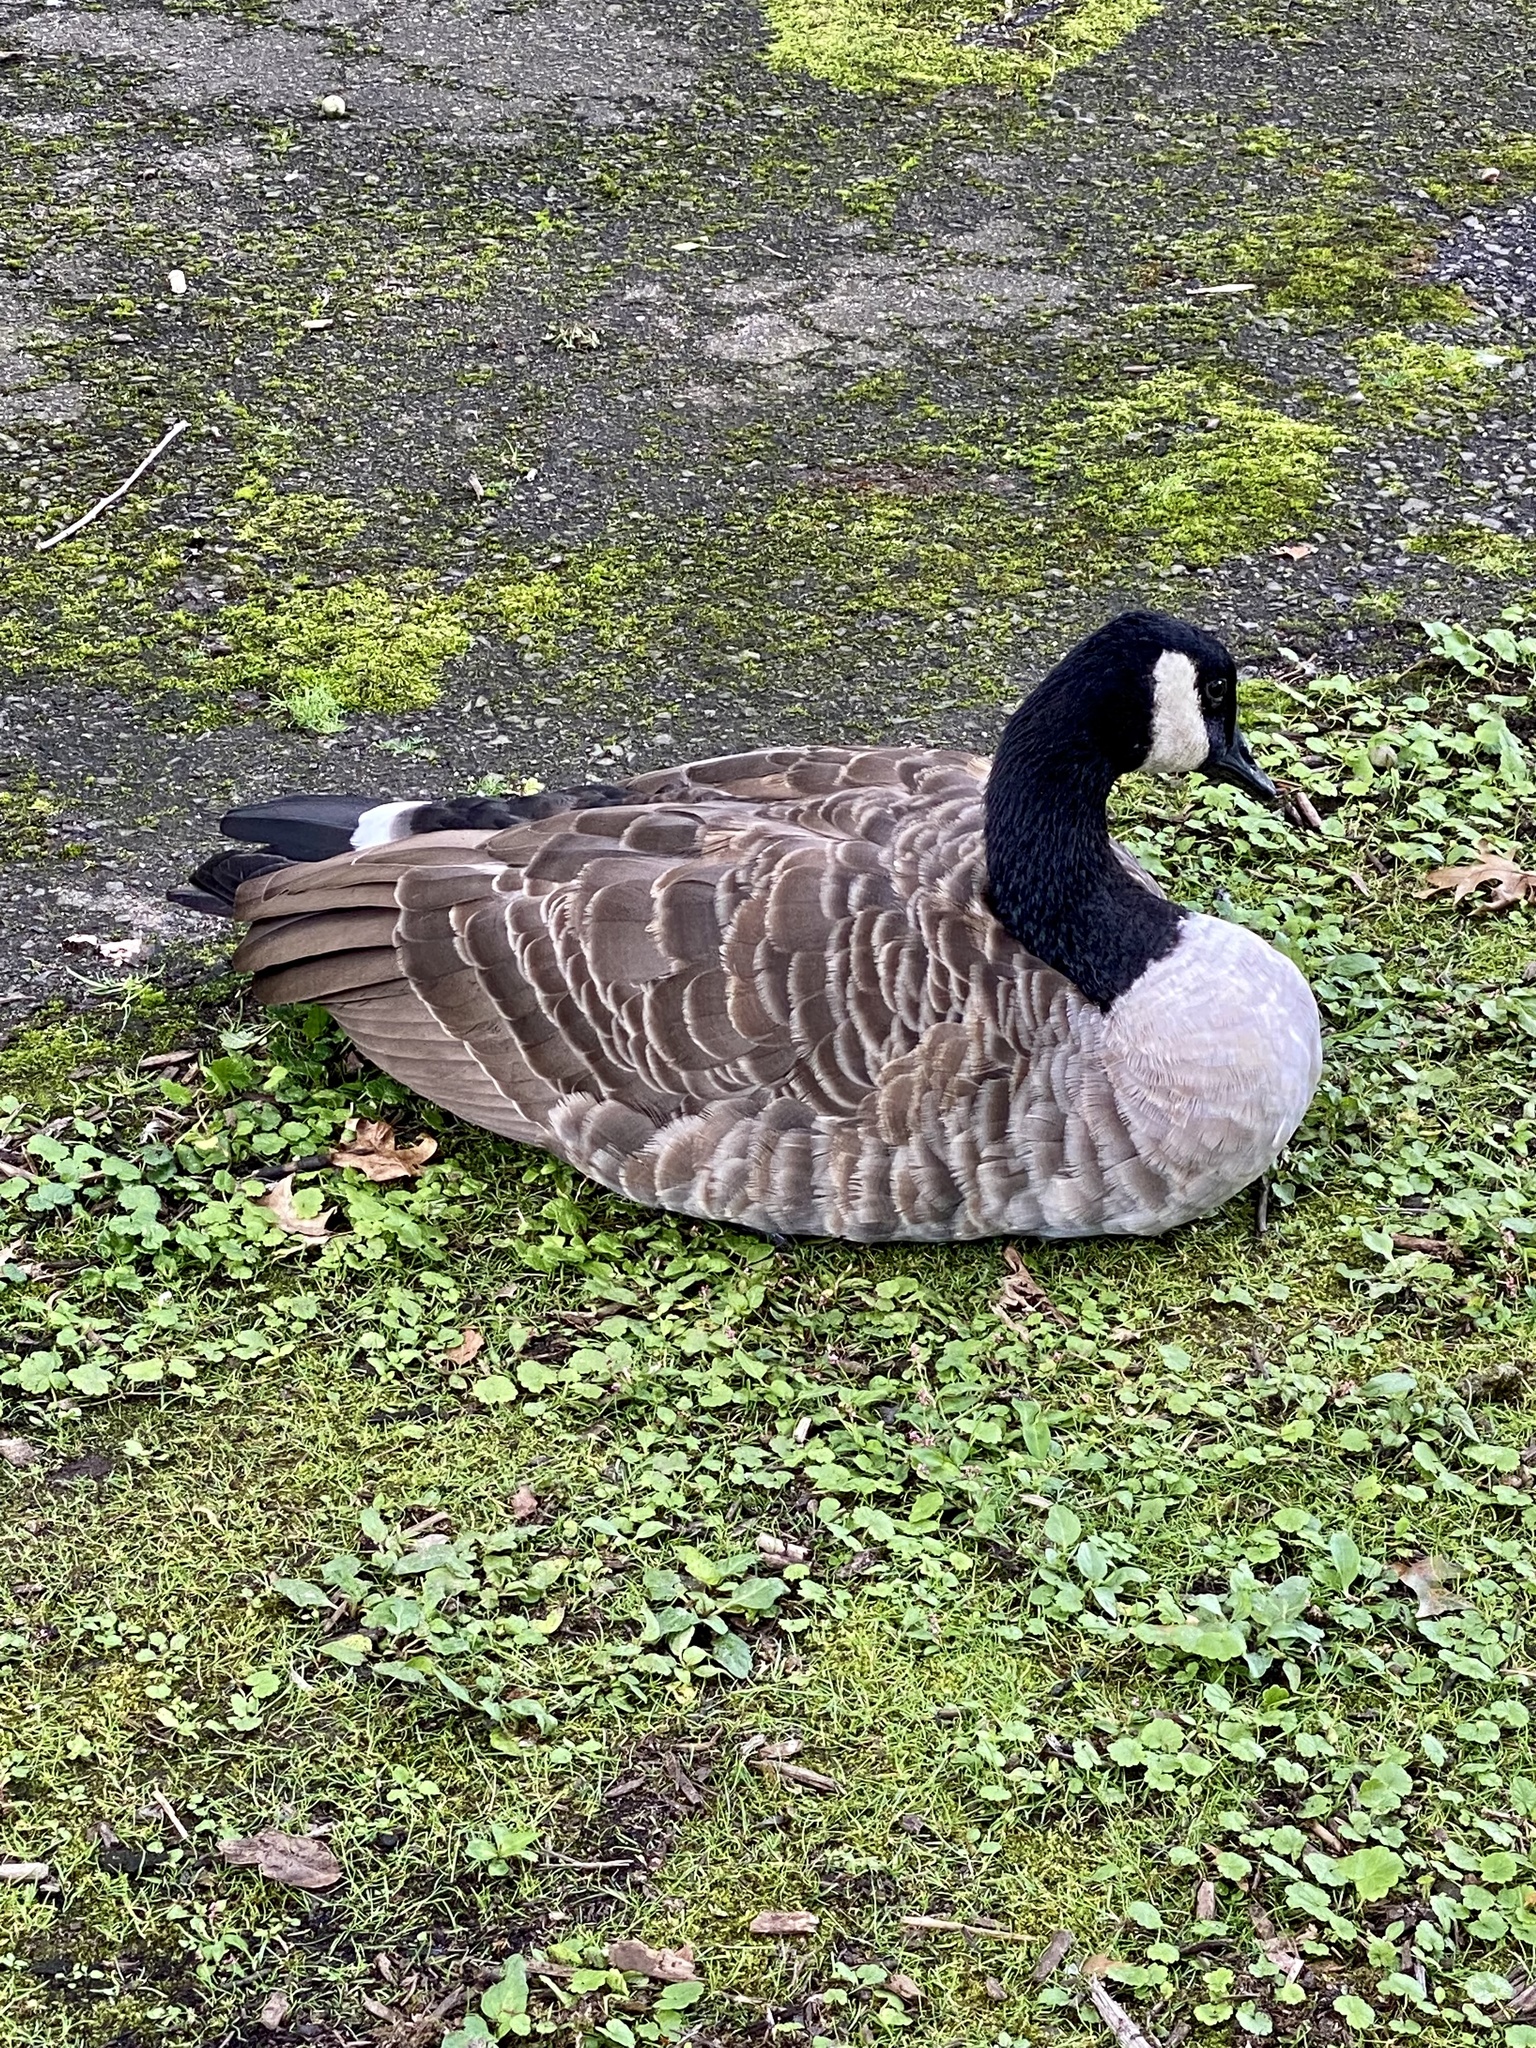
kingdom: Animalia
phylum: Chordata
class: Aves
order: Anseriformes
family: Anatidae
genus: Branta
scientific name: Branta canadensis
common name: Canada goose
